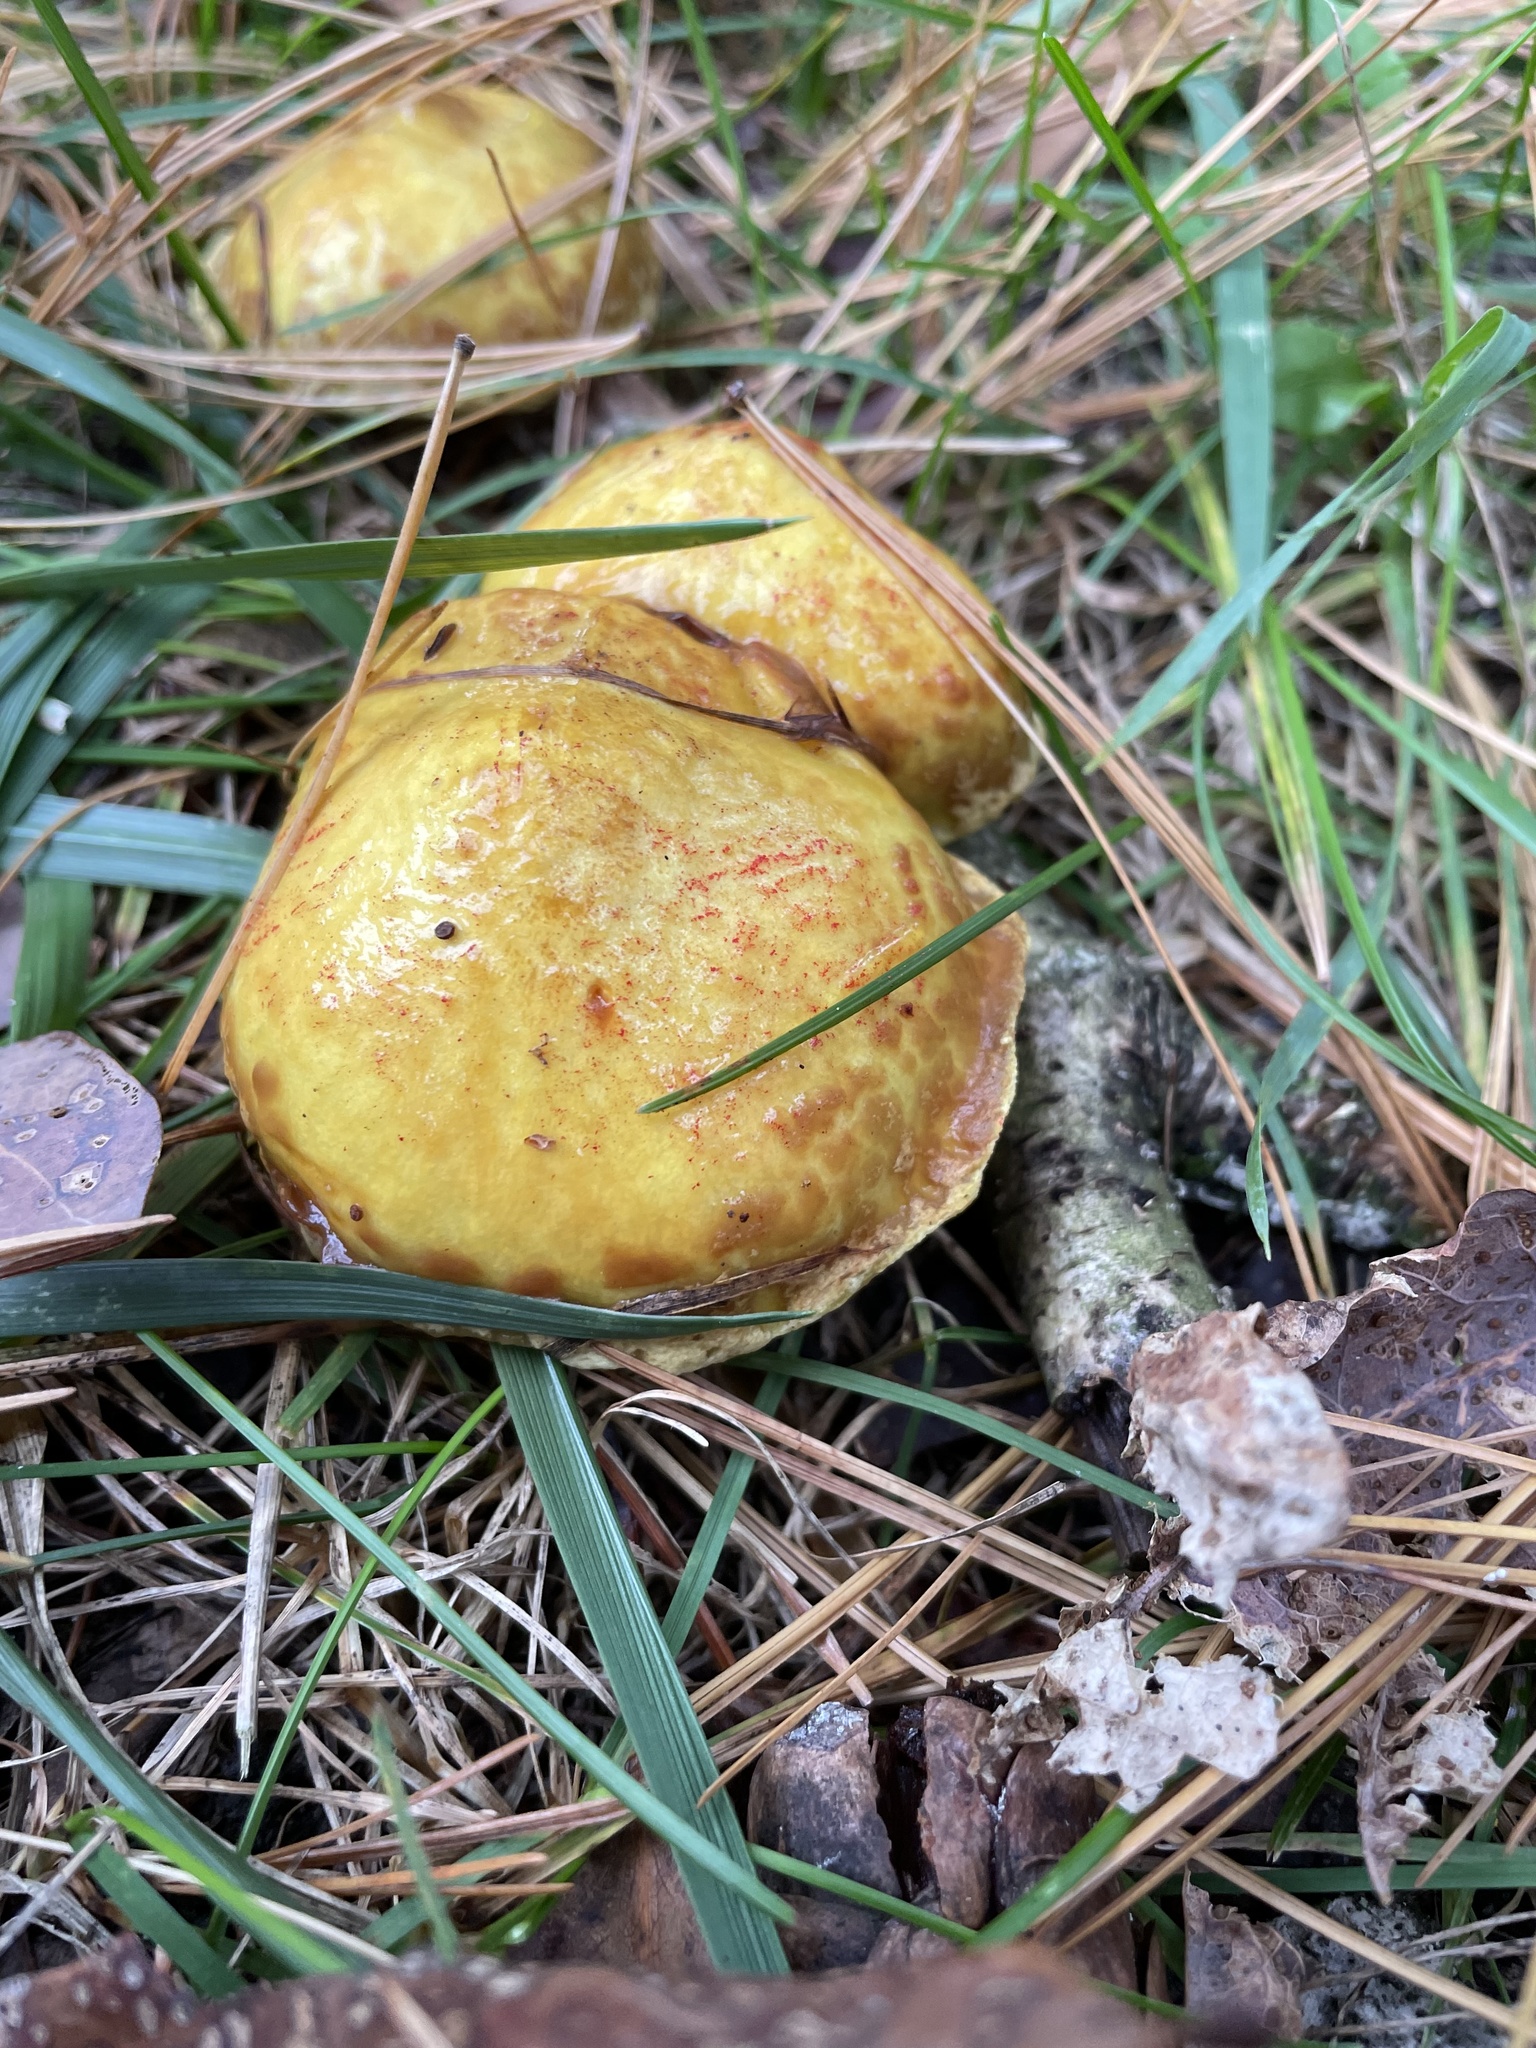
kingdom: Fungi
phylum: Basidiomycota
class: Agaricomycetes
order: Boletales
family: Suillaceae
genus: Suillus
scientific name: Suillus americanus
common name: Chicken fat mushroom
